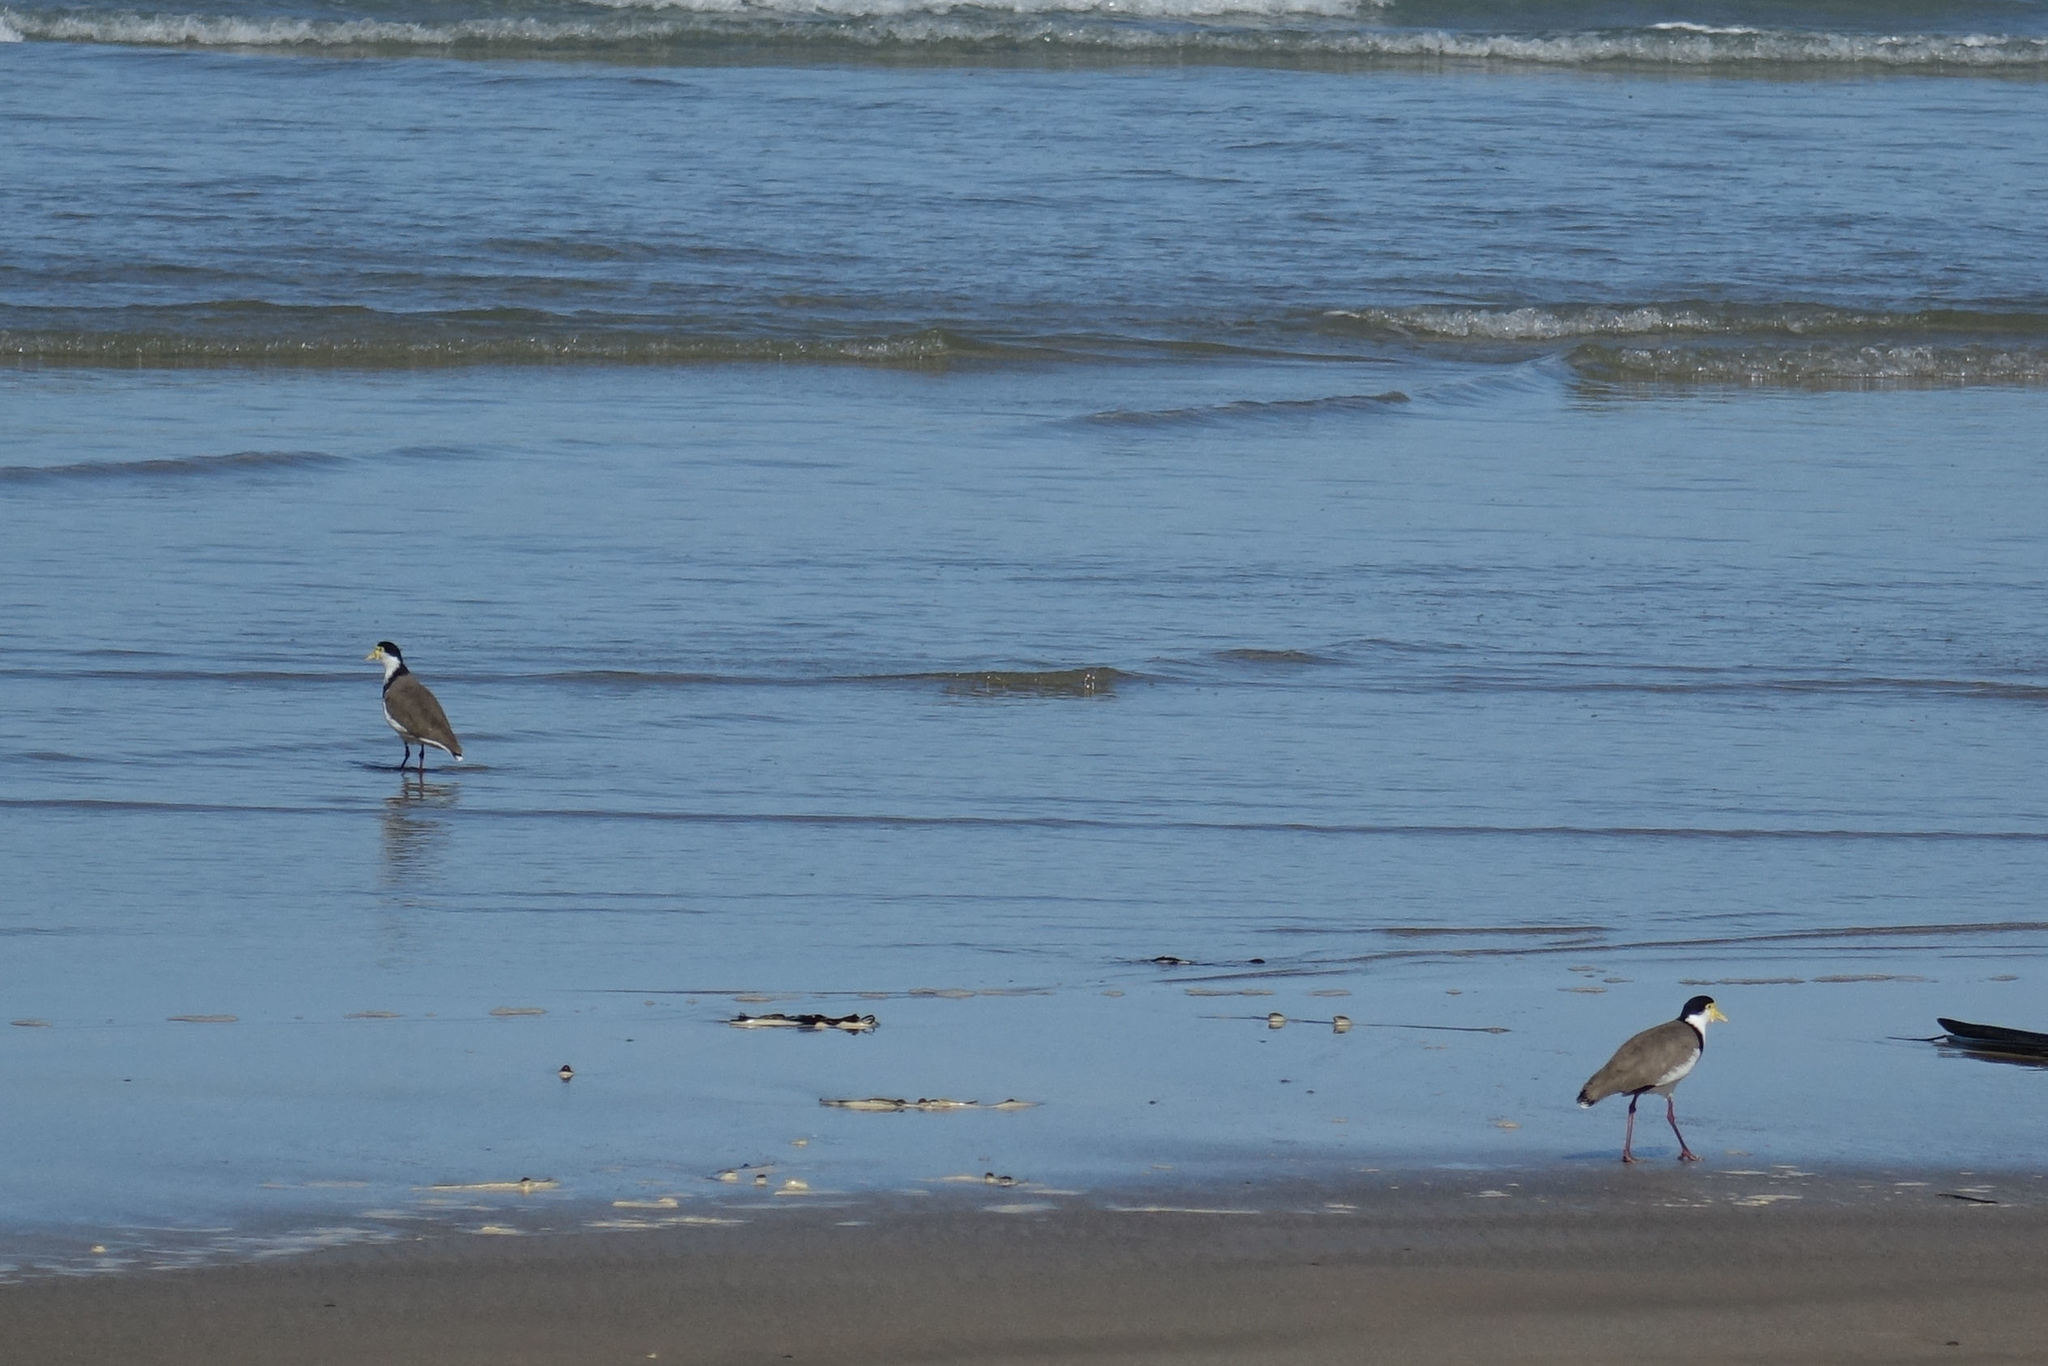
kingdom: Animalia
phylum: Chordata
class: Aves
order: Charadriiformes
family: Charadriidae
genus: Vanellus
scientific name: Vanellus miles
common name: Masked lapwing
